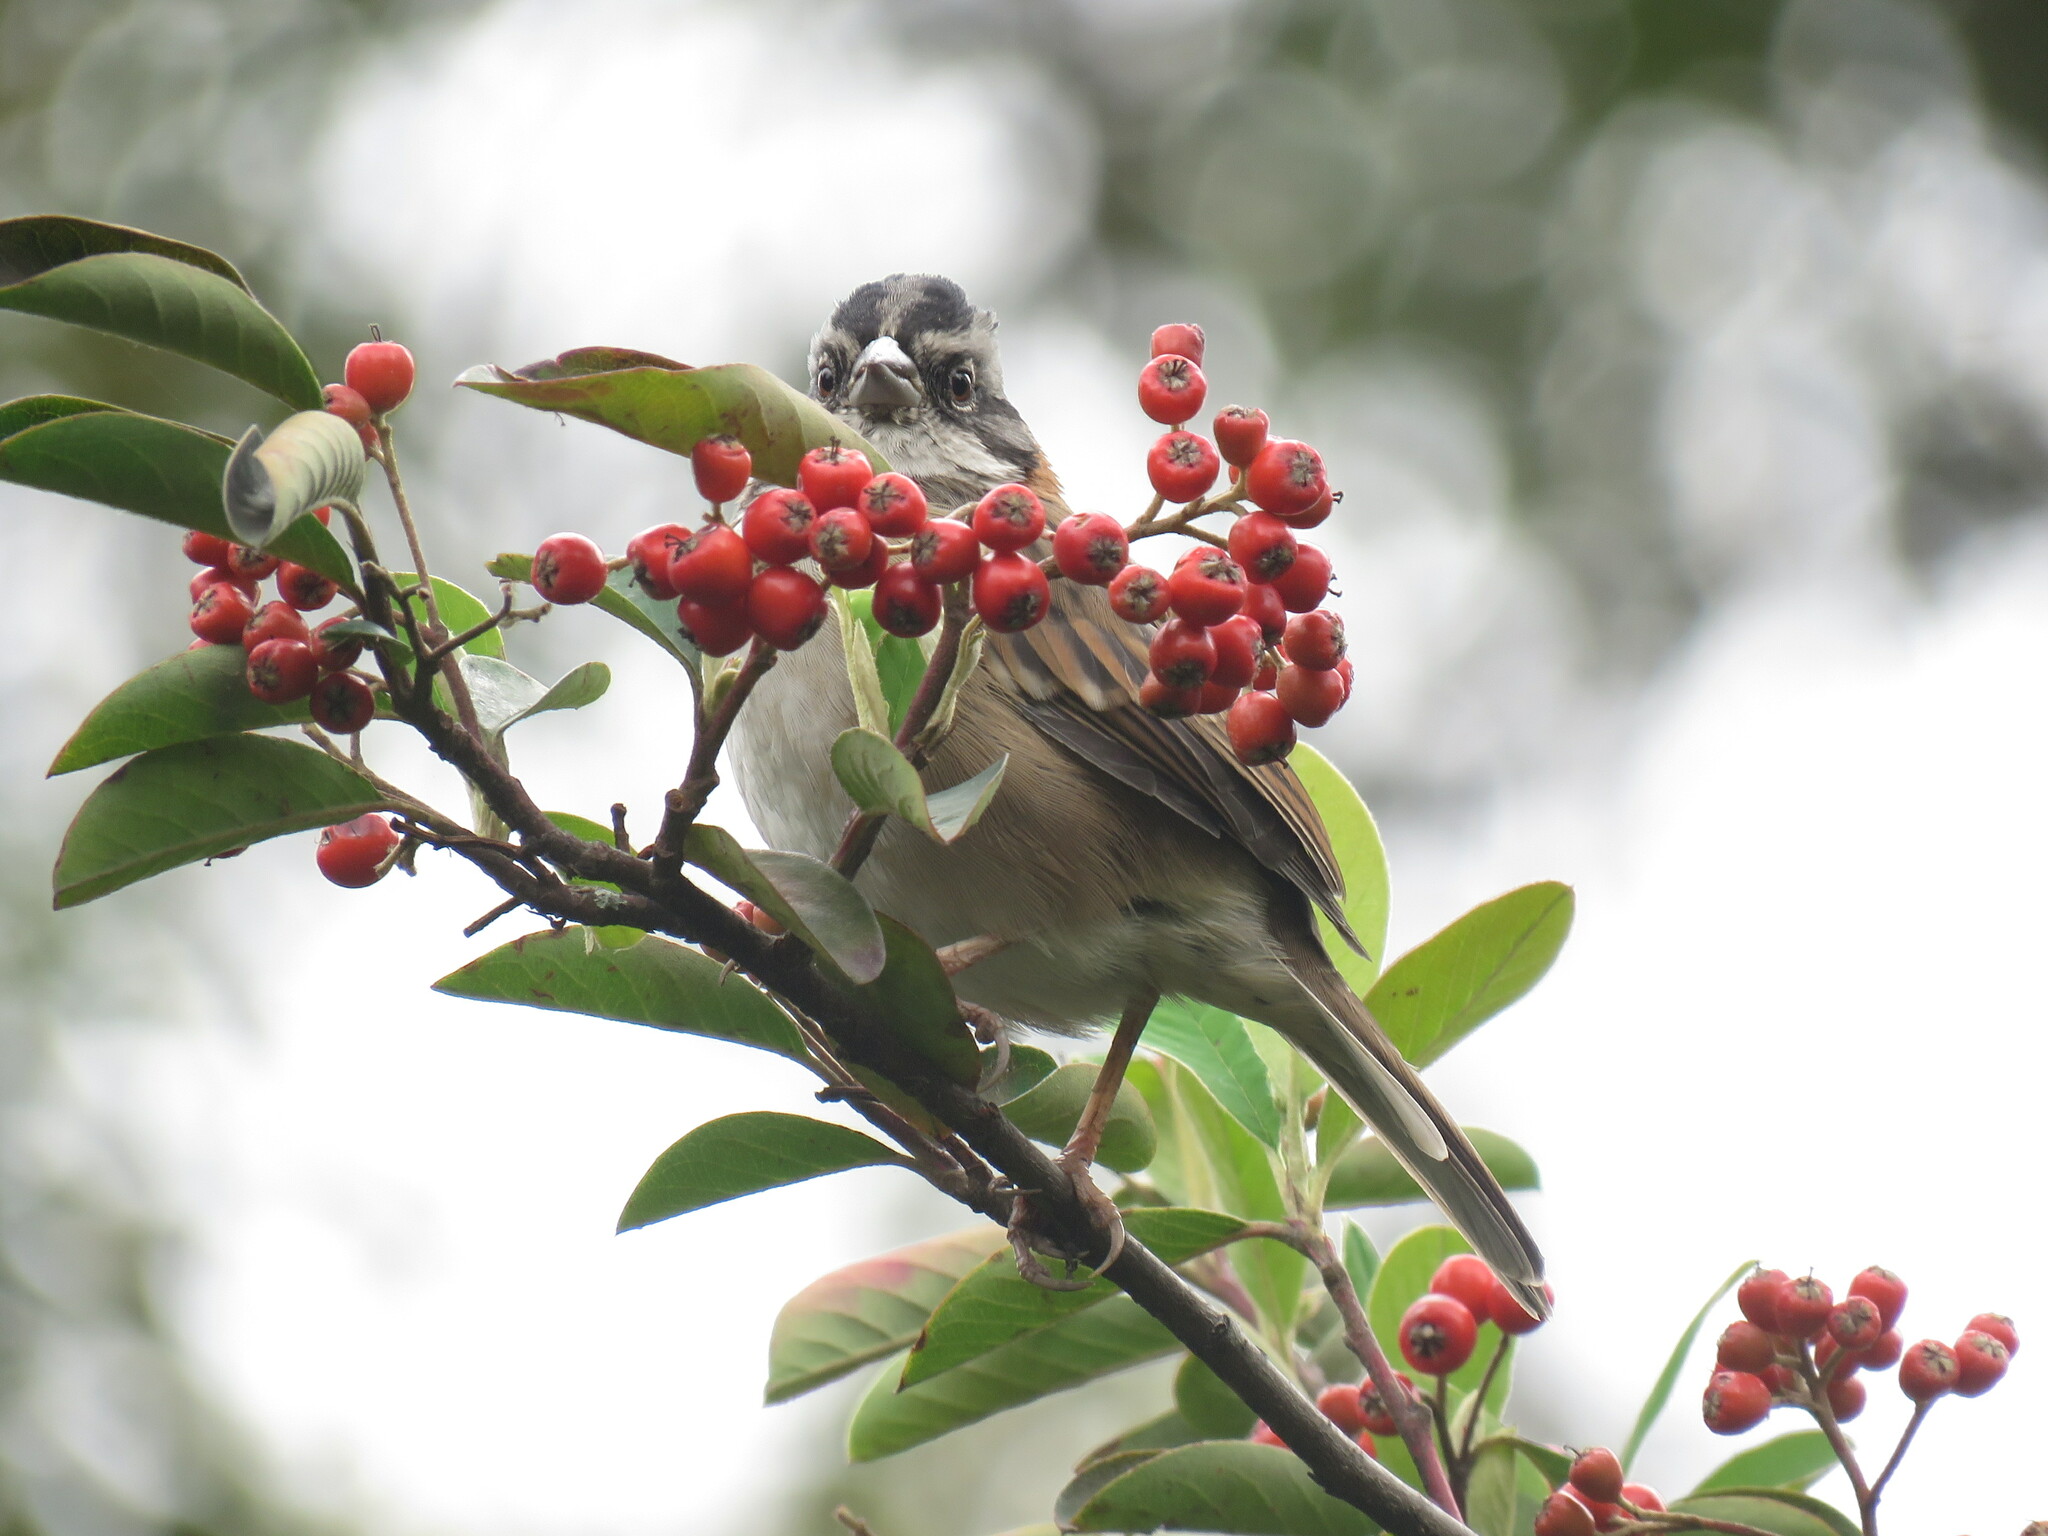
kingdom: Animalia
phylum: Chordata
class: Aves
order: Passeriformes
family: Passerellidae
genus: Zonotrichia
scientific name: Zonotrichia capensis
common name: Rufous-collared sparrow
